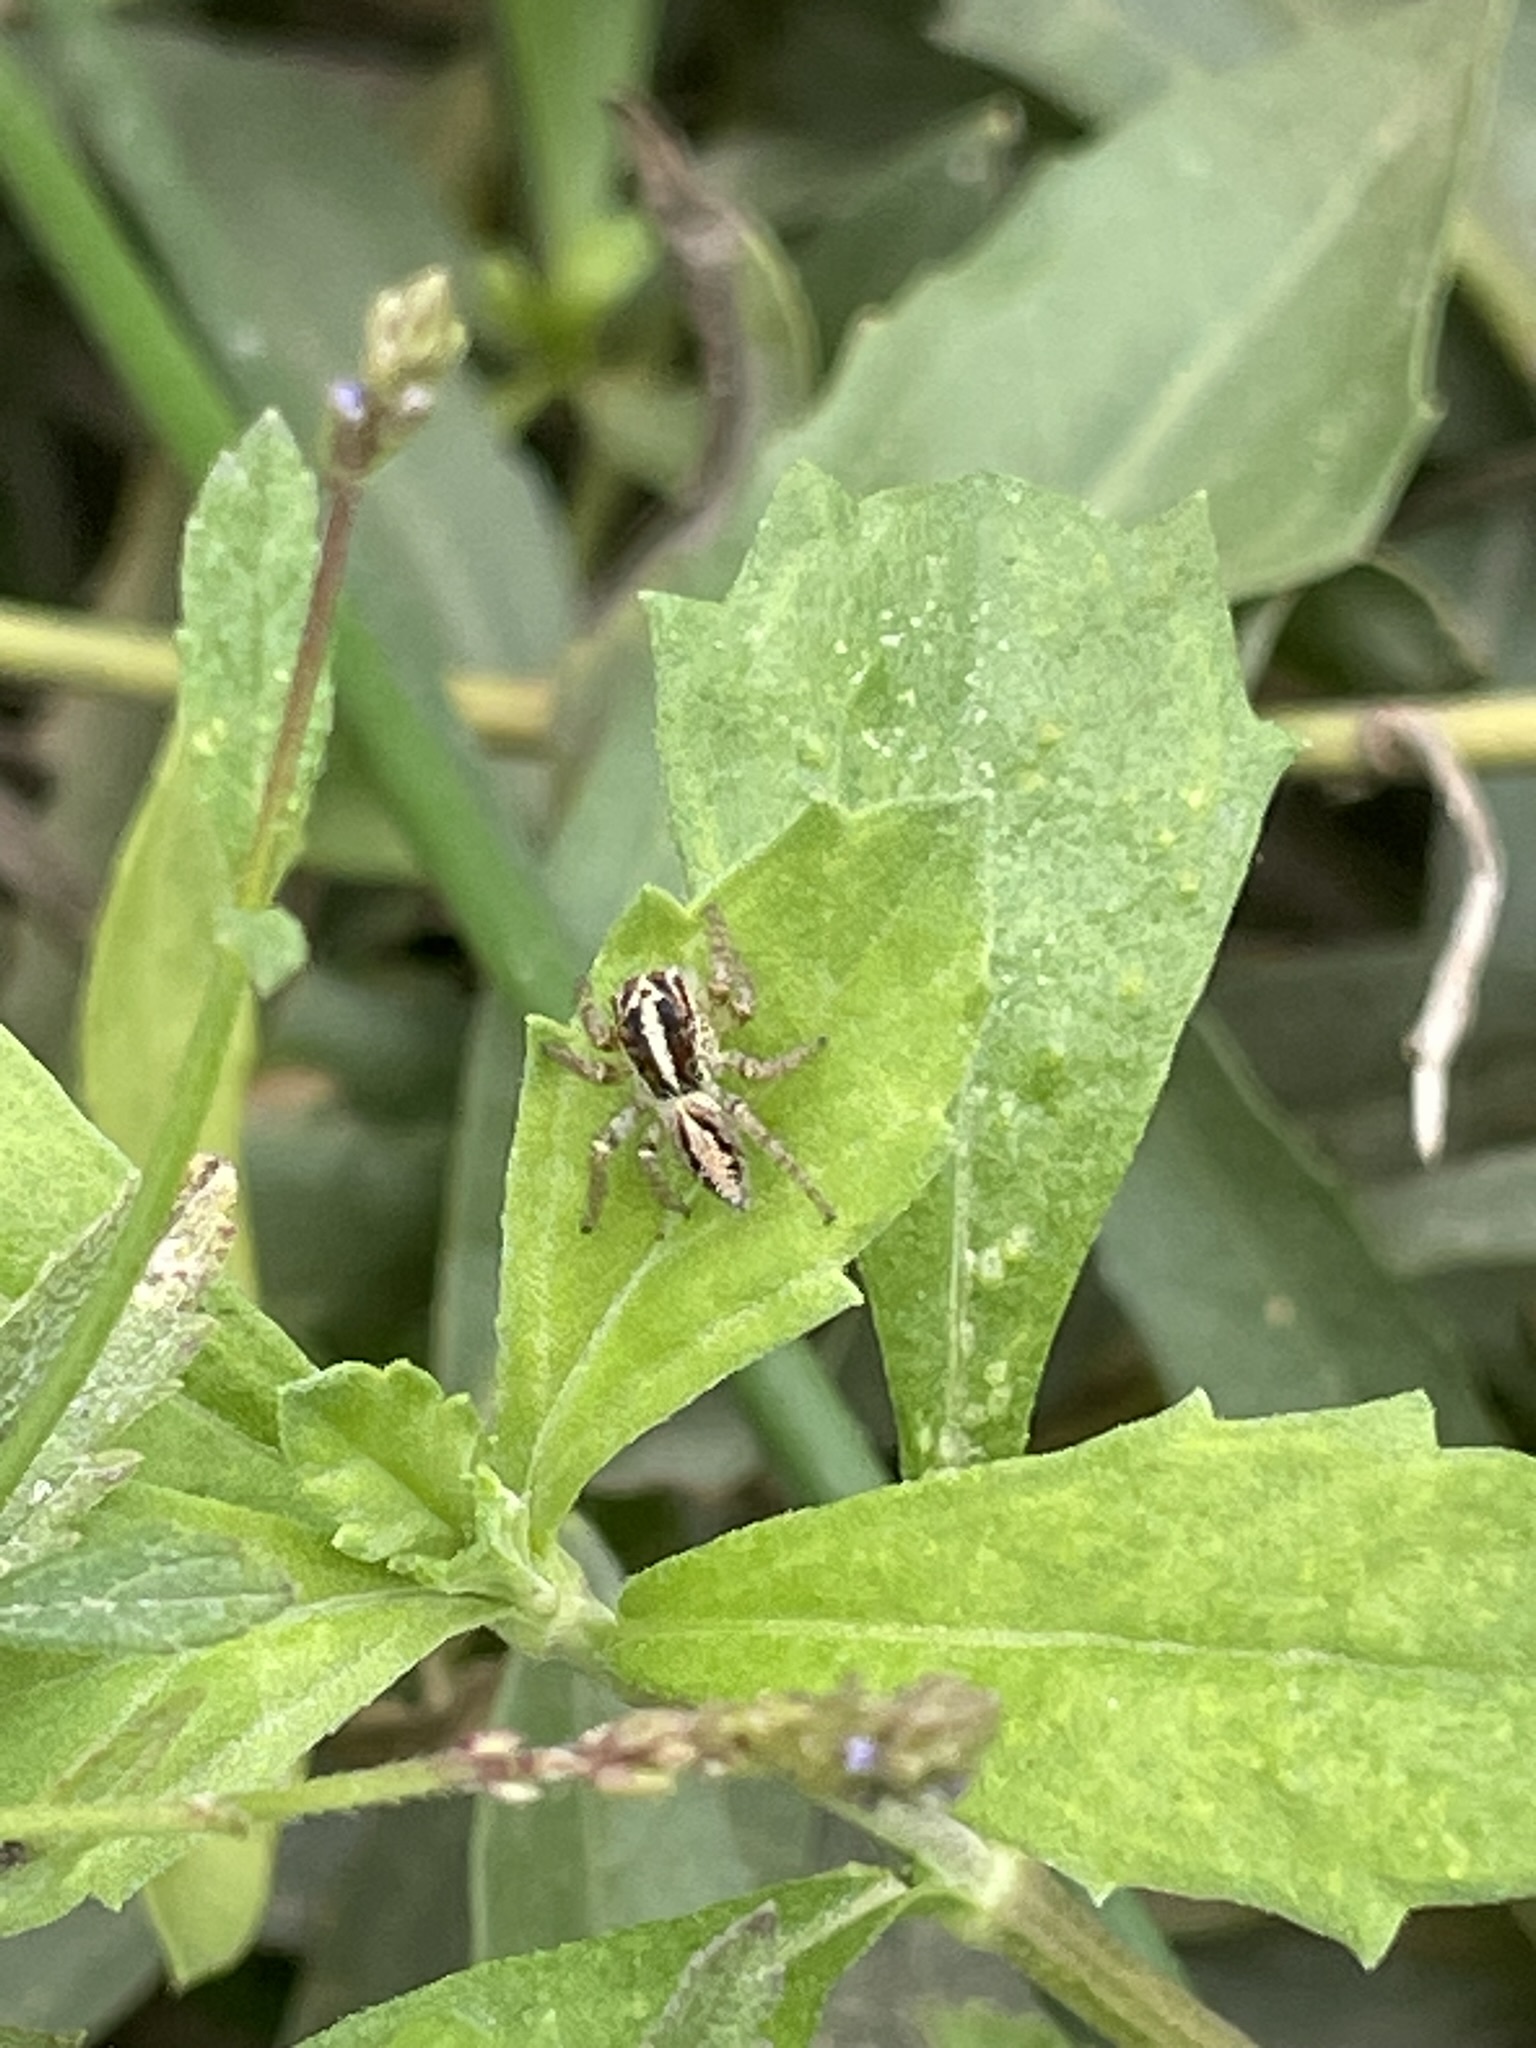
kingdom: Animalia
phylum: Arthropoda
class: Arachnida
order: Araneae
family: Salticidae
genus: Frigga
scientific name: Frigga crocuta
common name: Jumping spiders
